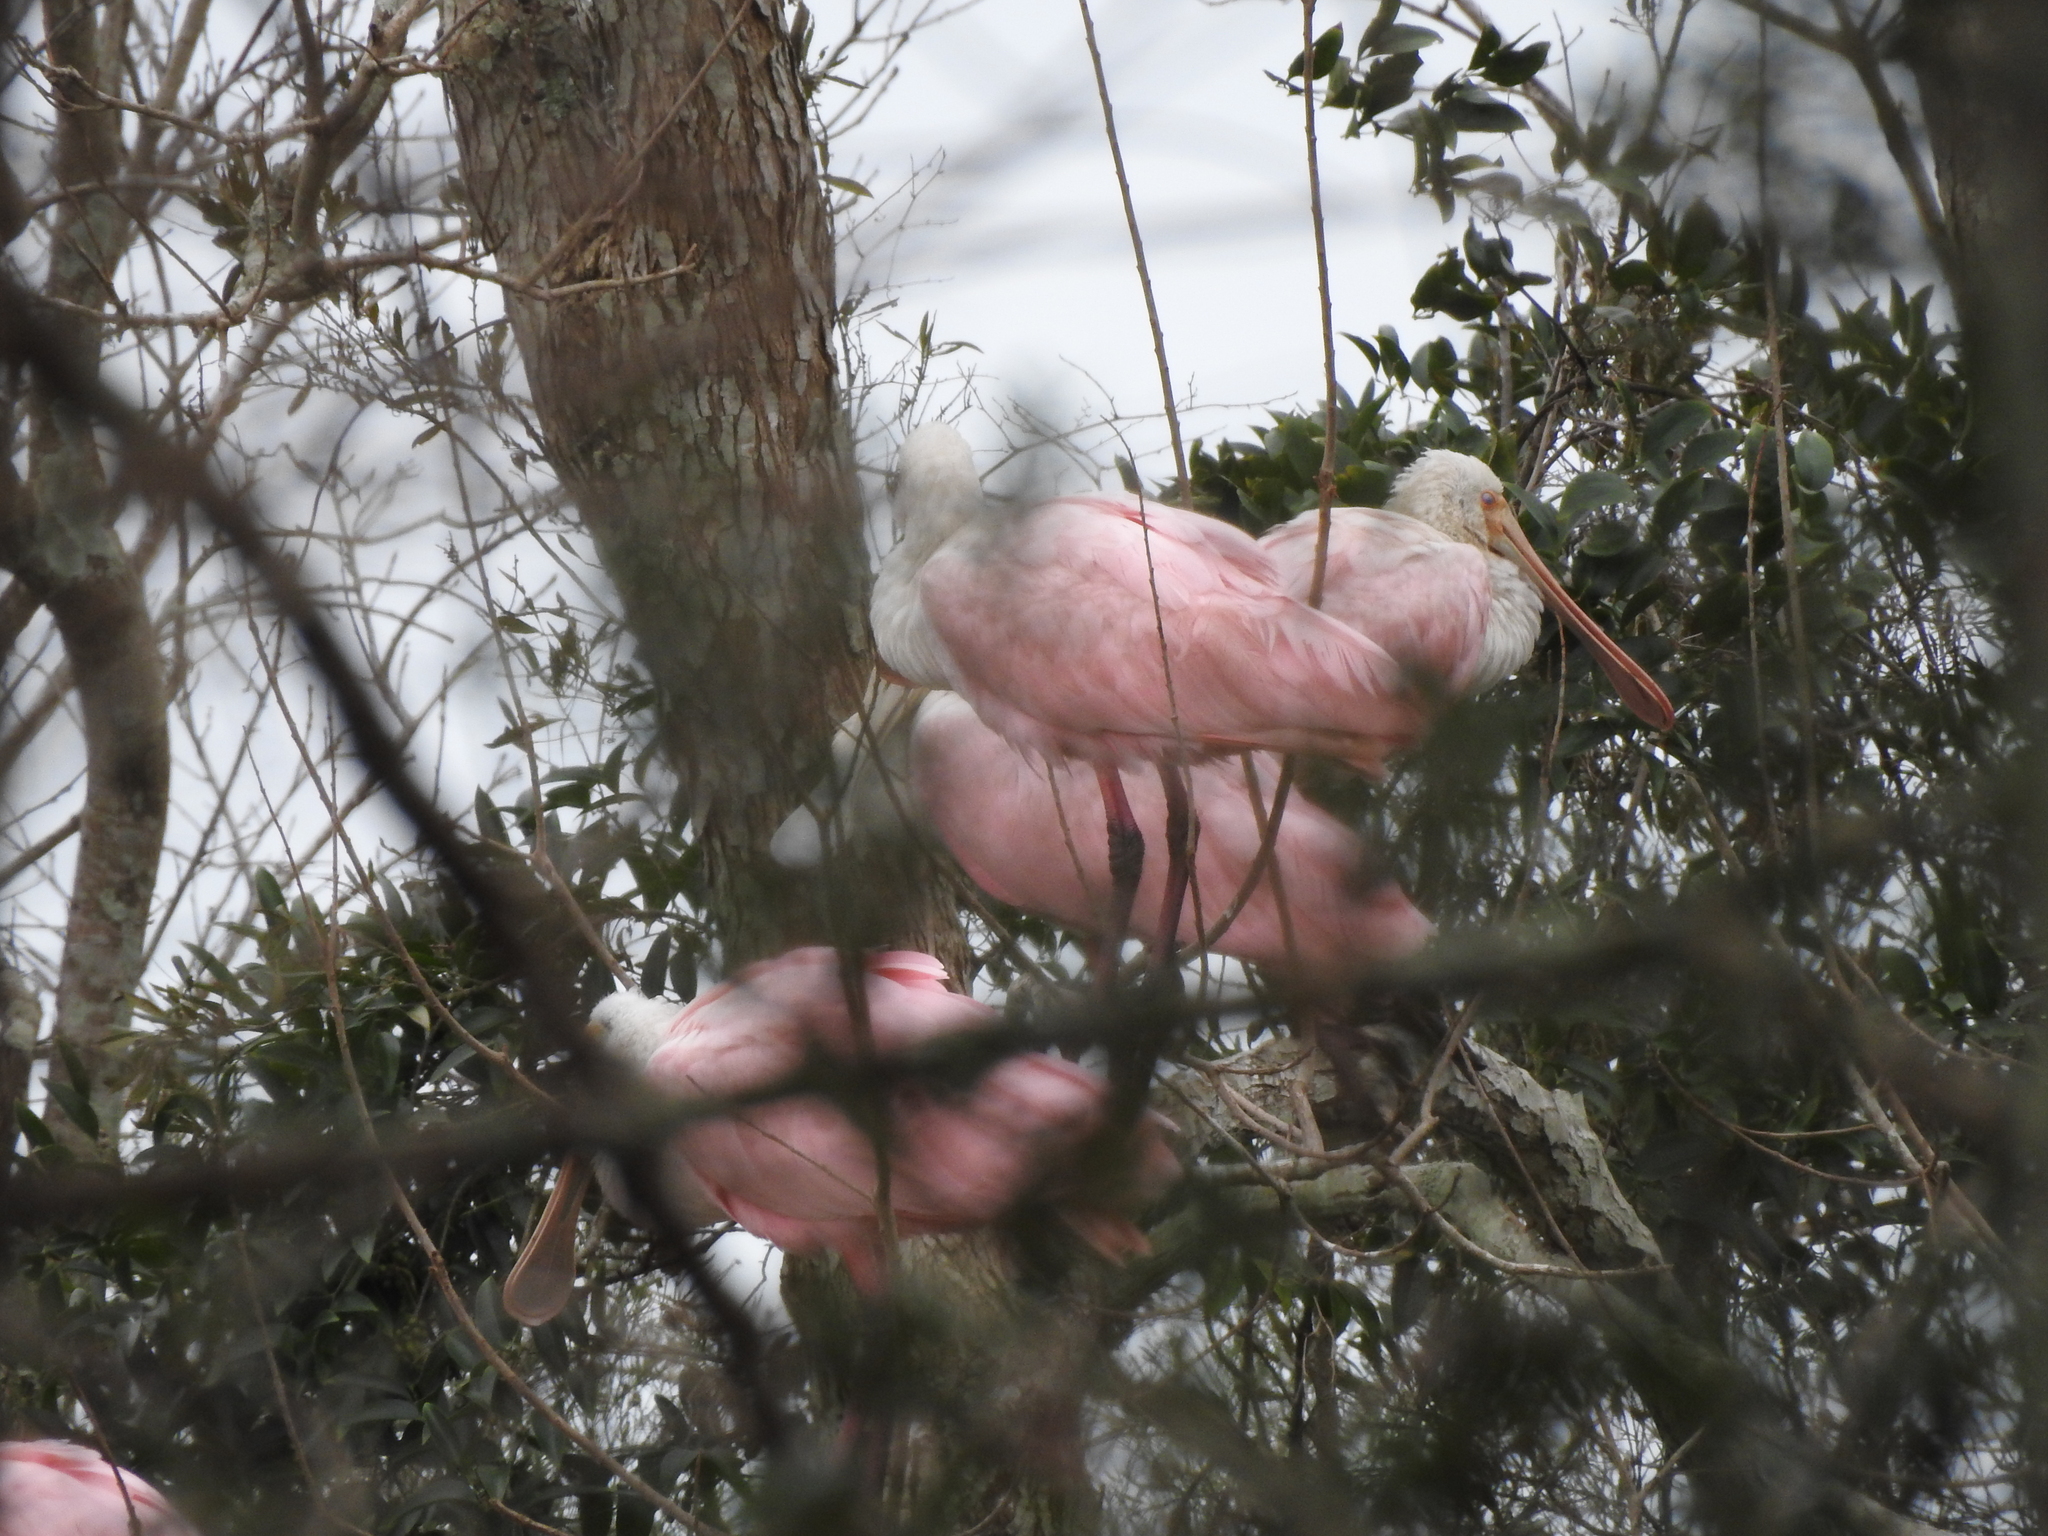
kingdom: Animalia
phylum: Chordata
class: Aves
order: Pelecaniformes
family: Threskiornithidae
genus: Platalea
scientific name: Platalea ajaja
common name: Roseate spoonbill
